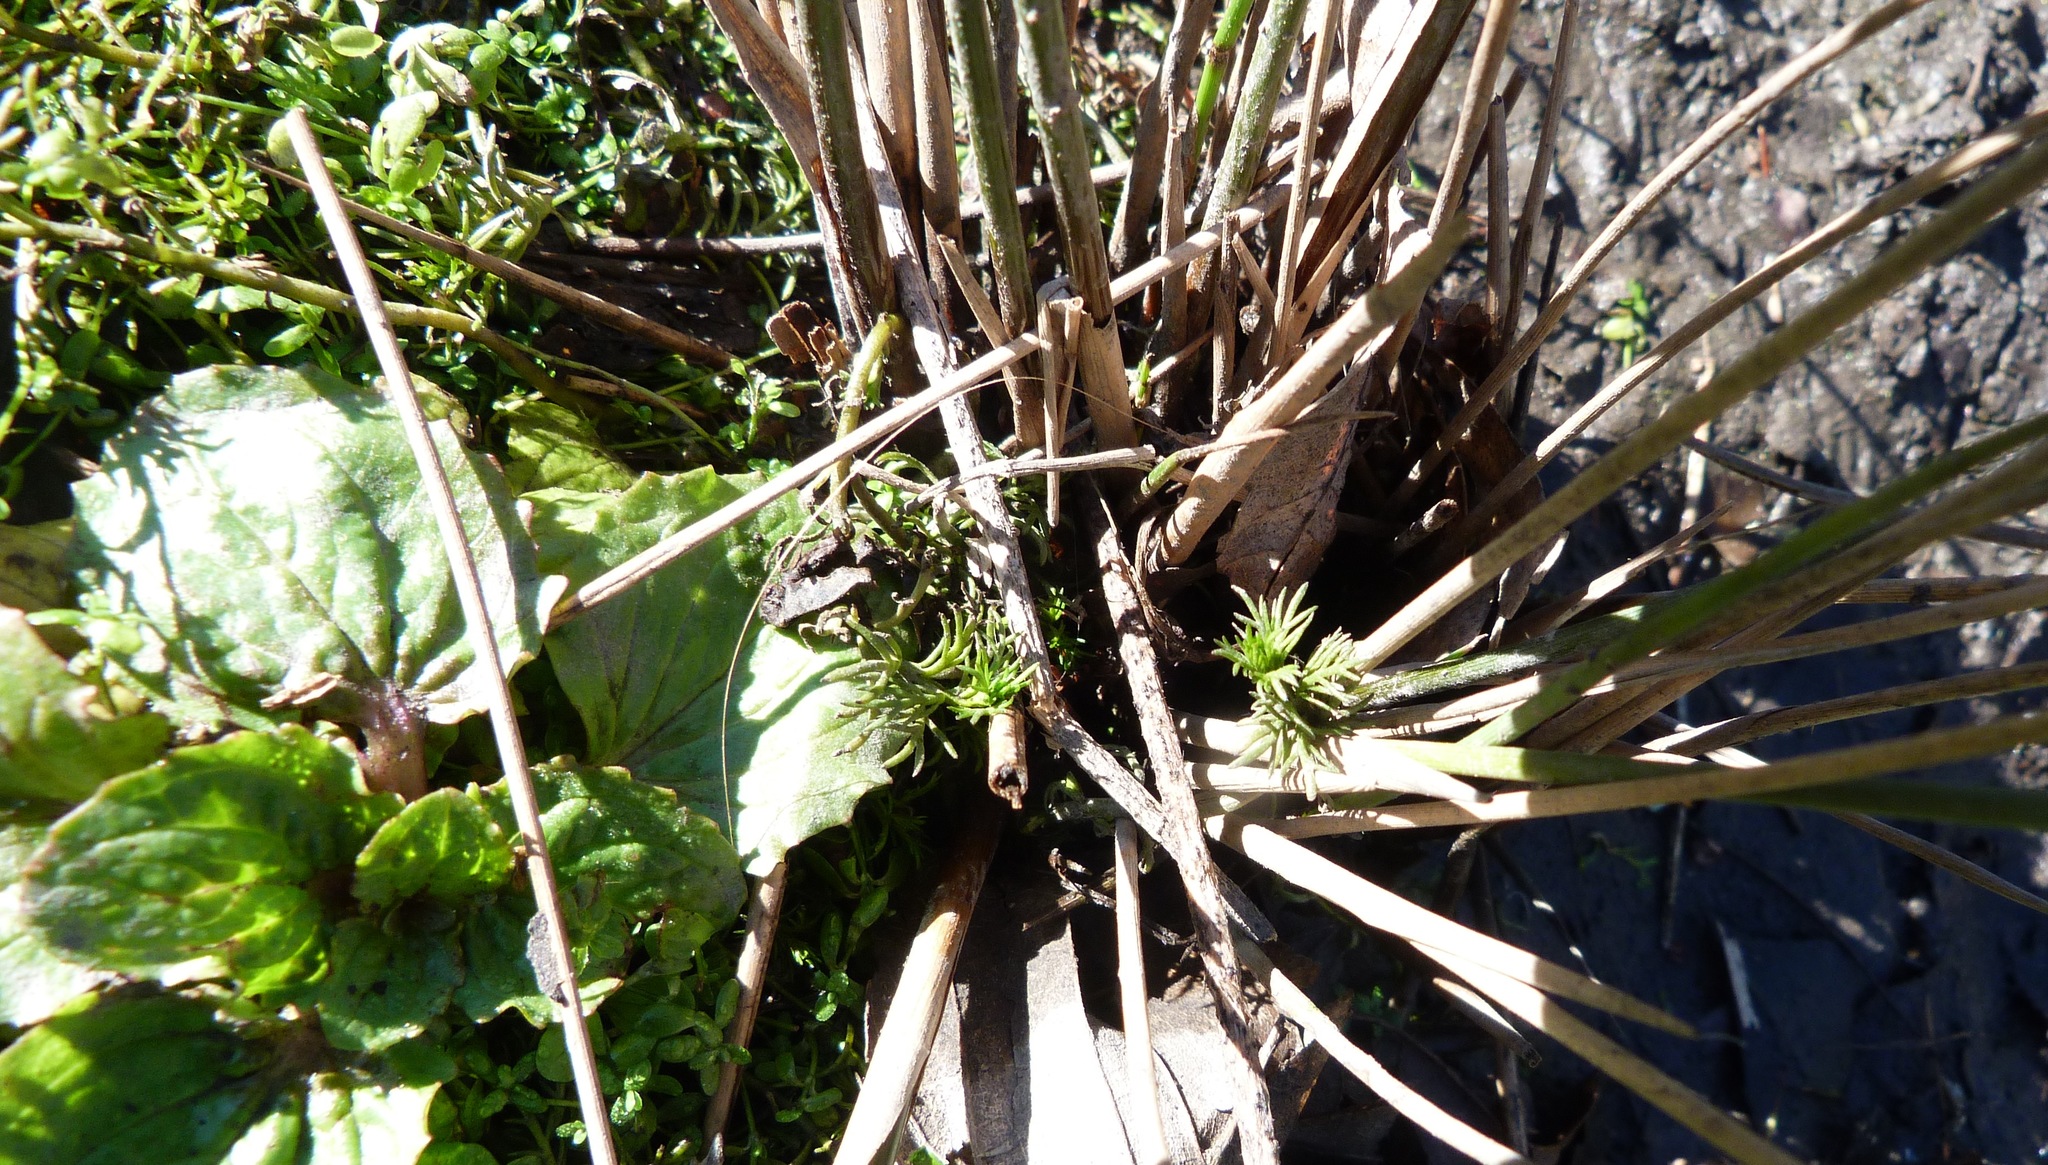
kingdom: Plantae
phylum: Tracheophyta
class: Magnoliopsida
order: Saxifragales
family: Haloragaceae
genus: Myriophyllum
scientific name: Myriophyllum propinquum
